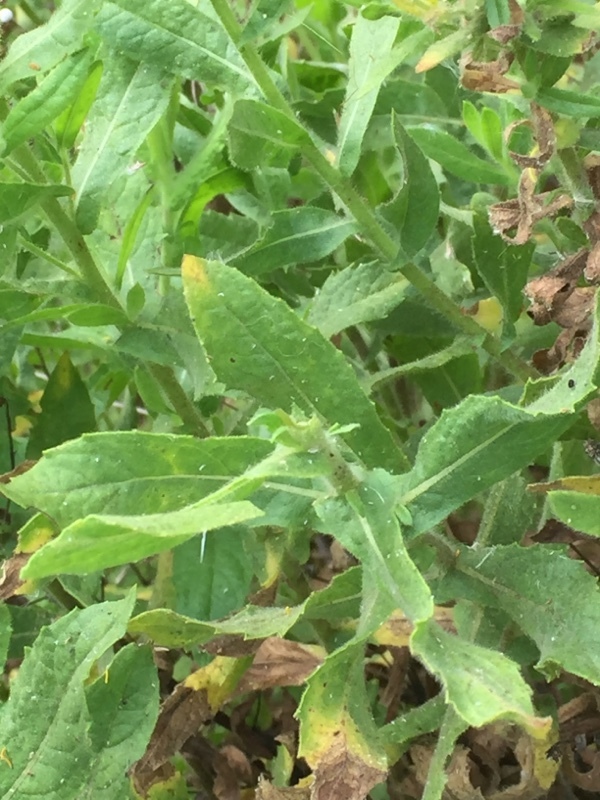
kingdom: Plantae
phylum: Tracheophyta
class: Magnoliopsida
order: Asterales
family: Asteraceae
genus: Dittrichia
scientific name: Dittrichia viscosa
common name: Woody fleabane
